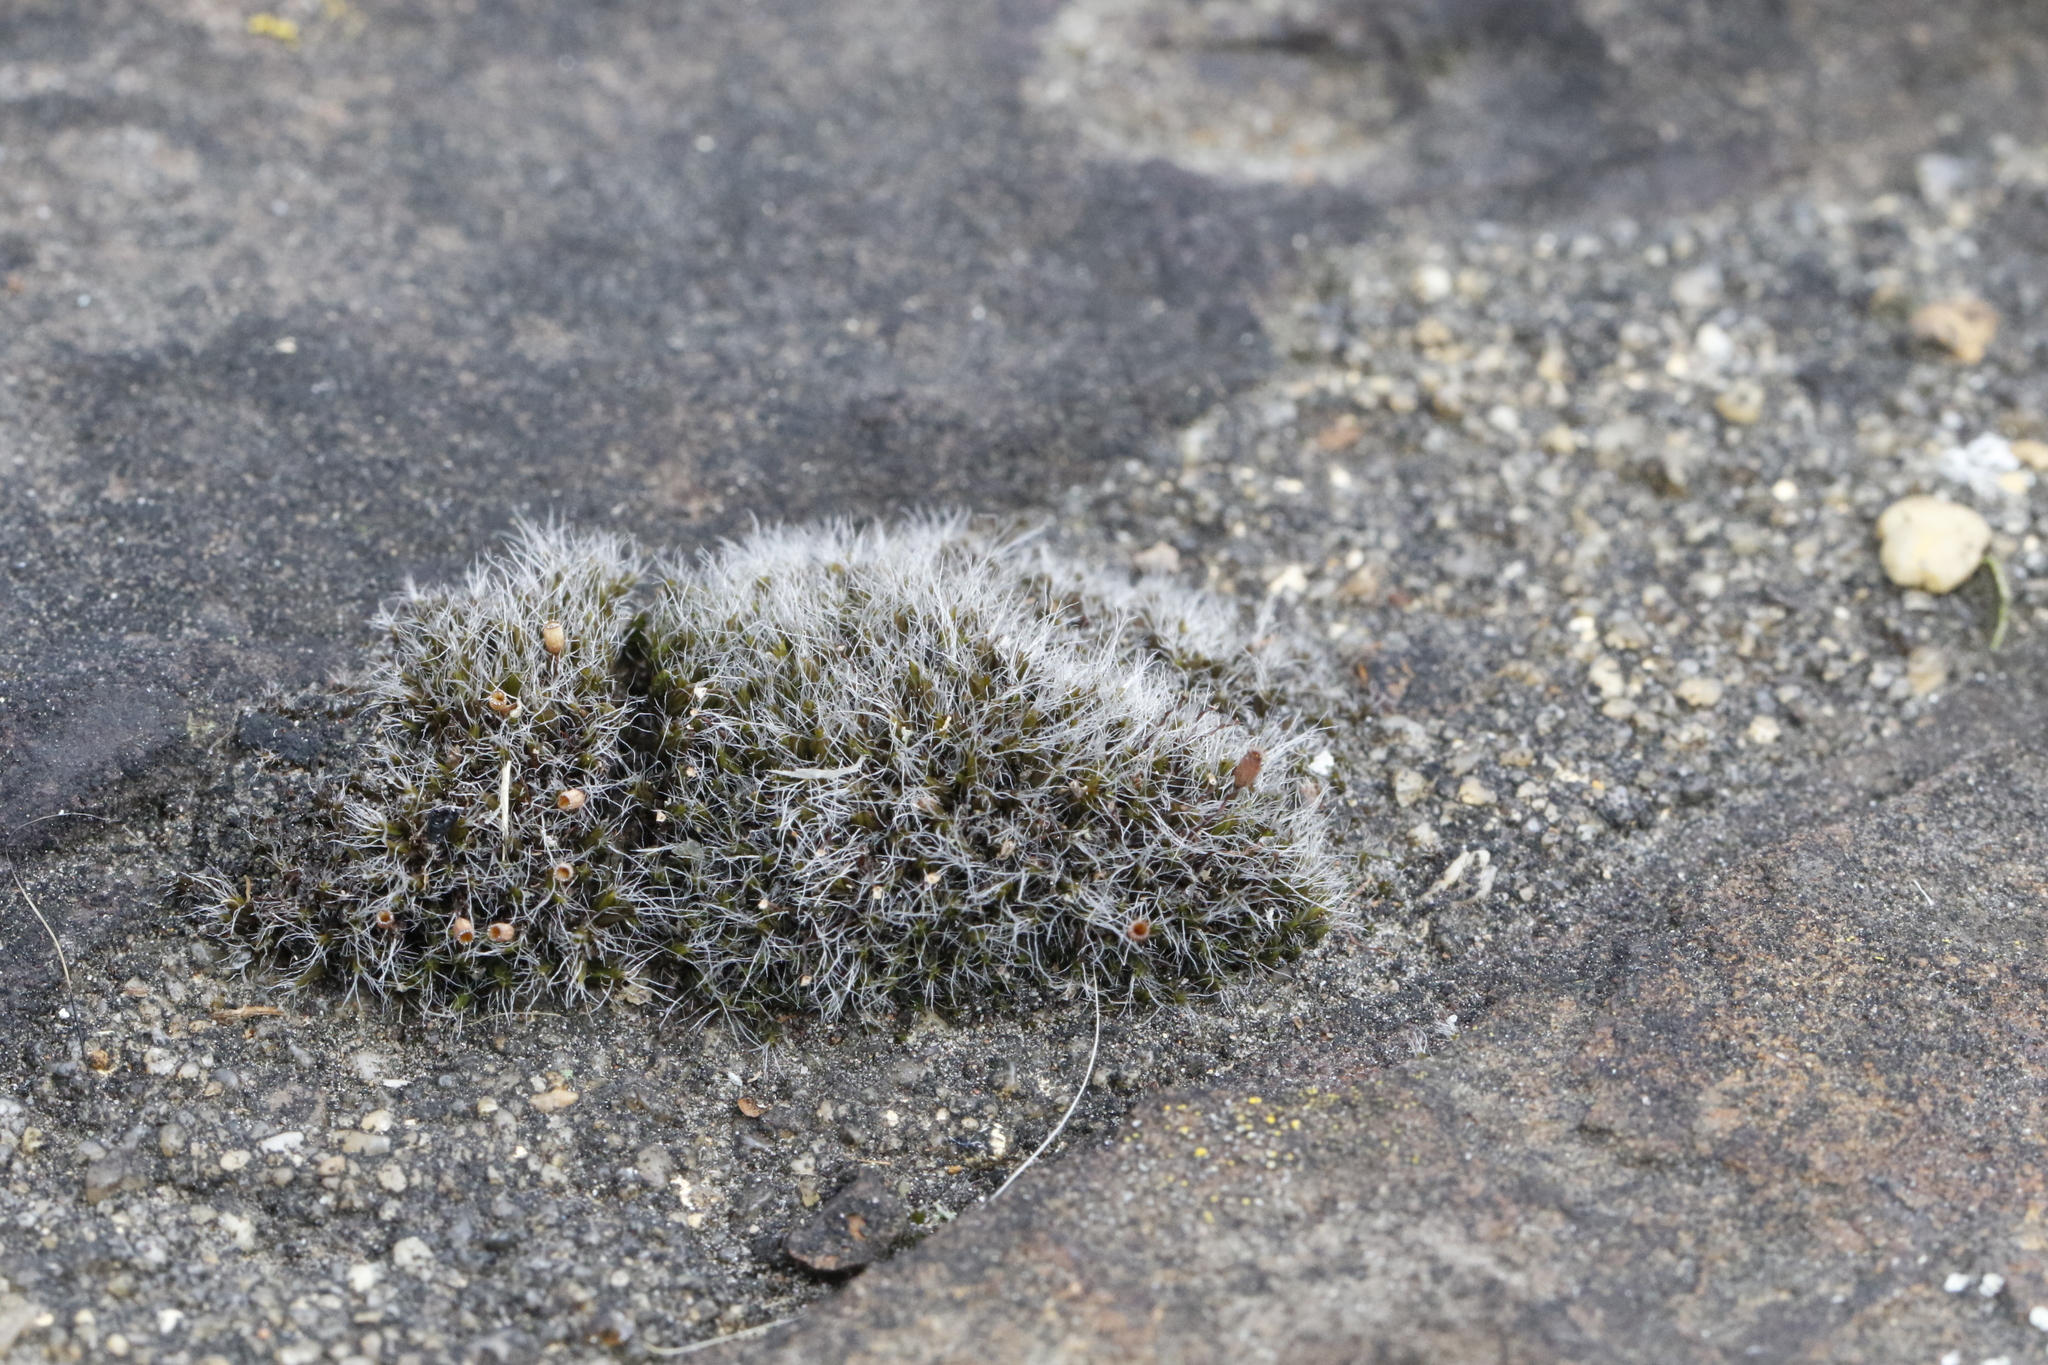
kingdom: Plantae
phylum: Bryophyta
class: Bryopsida
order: Grimmiales
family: Grimmiaceae
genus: Grimmia
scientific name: Grimmia pulvinata
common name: Grey-cushioned grimmia
